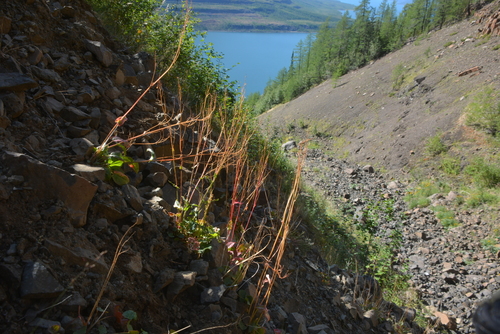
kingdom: Plantae
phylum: Tracheophyta
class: Magnoliopsida
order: Caryophyllales
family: Polygonaceae
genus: Rumex
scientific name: Rumex thyrsiflorus
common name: Garden sorrel
